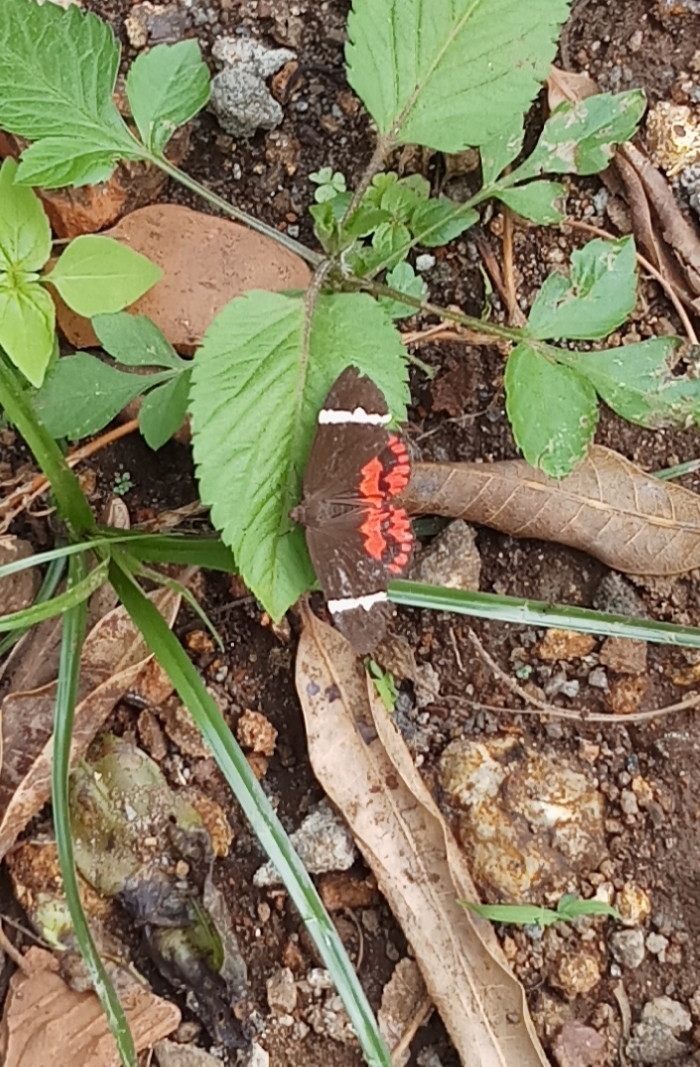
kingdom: Animalia
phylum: Arthropoda
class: Insecta
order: Lepidoptera
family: Erebidae
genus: Curoba
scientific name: Curoba sangarida
